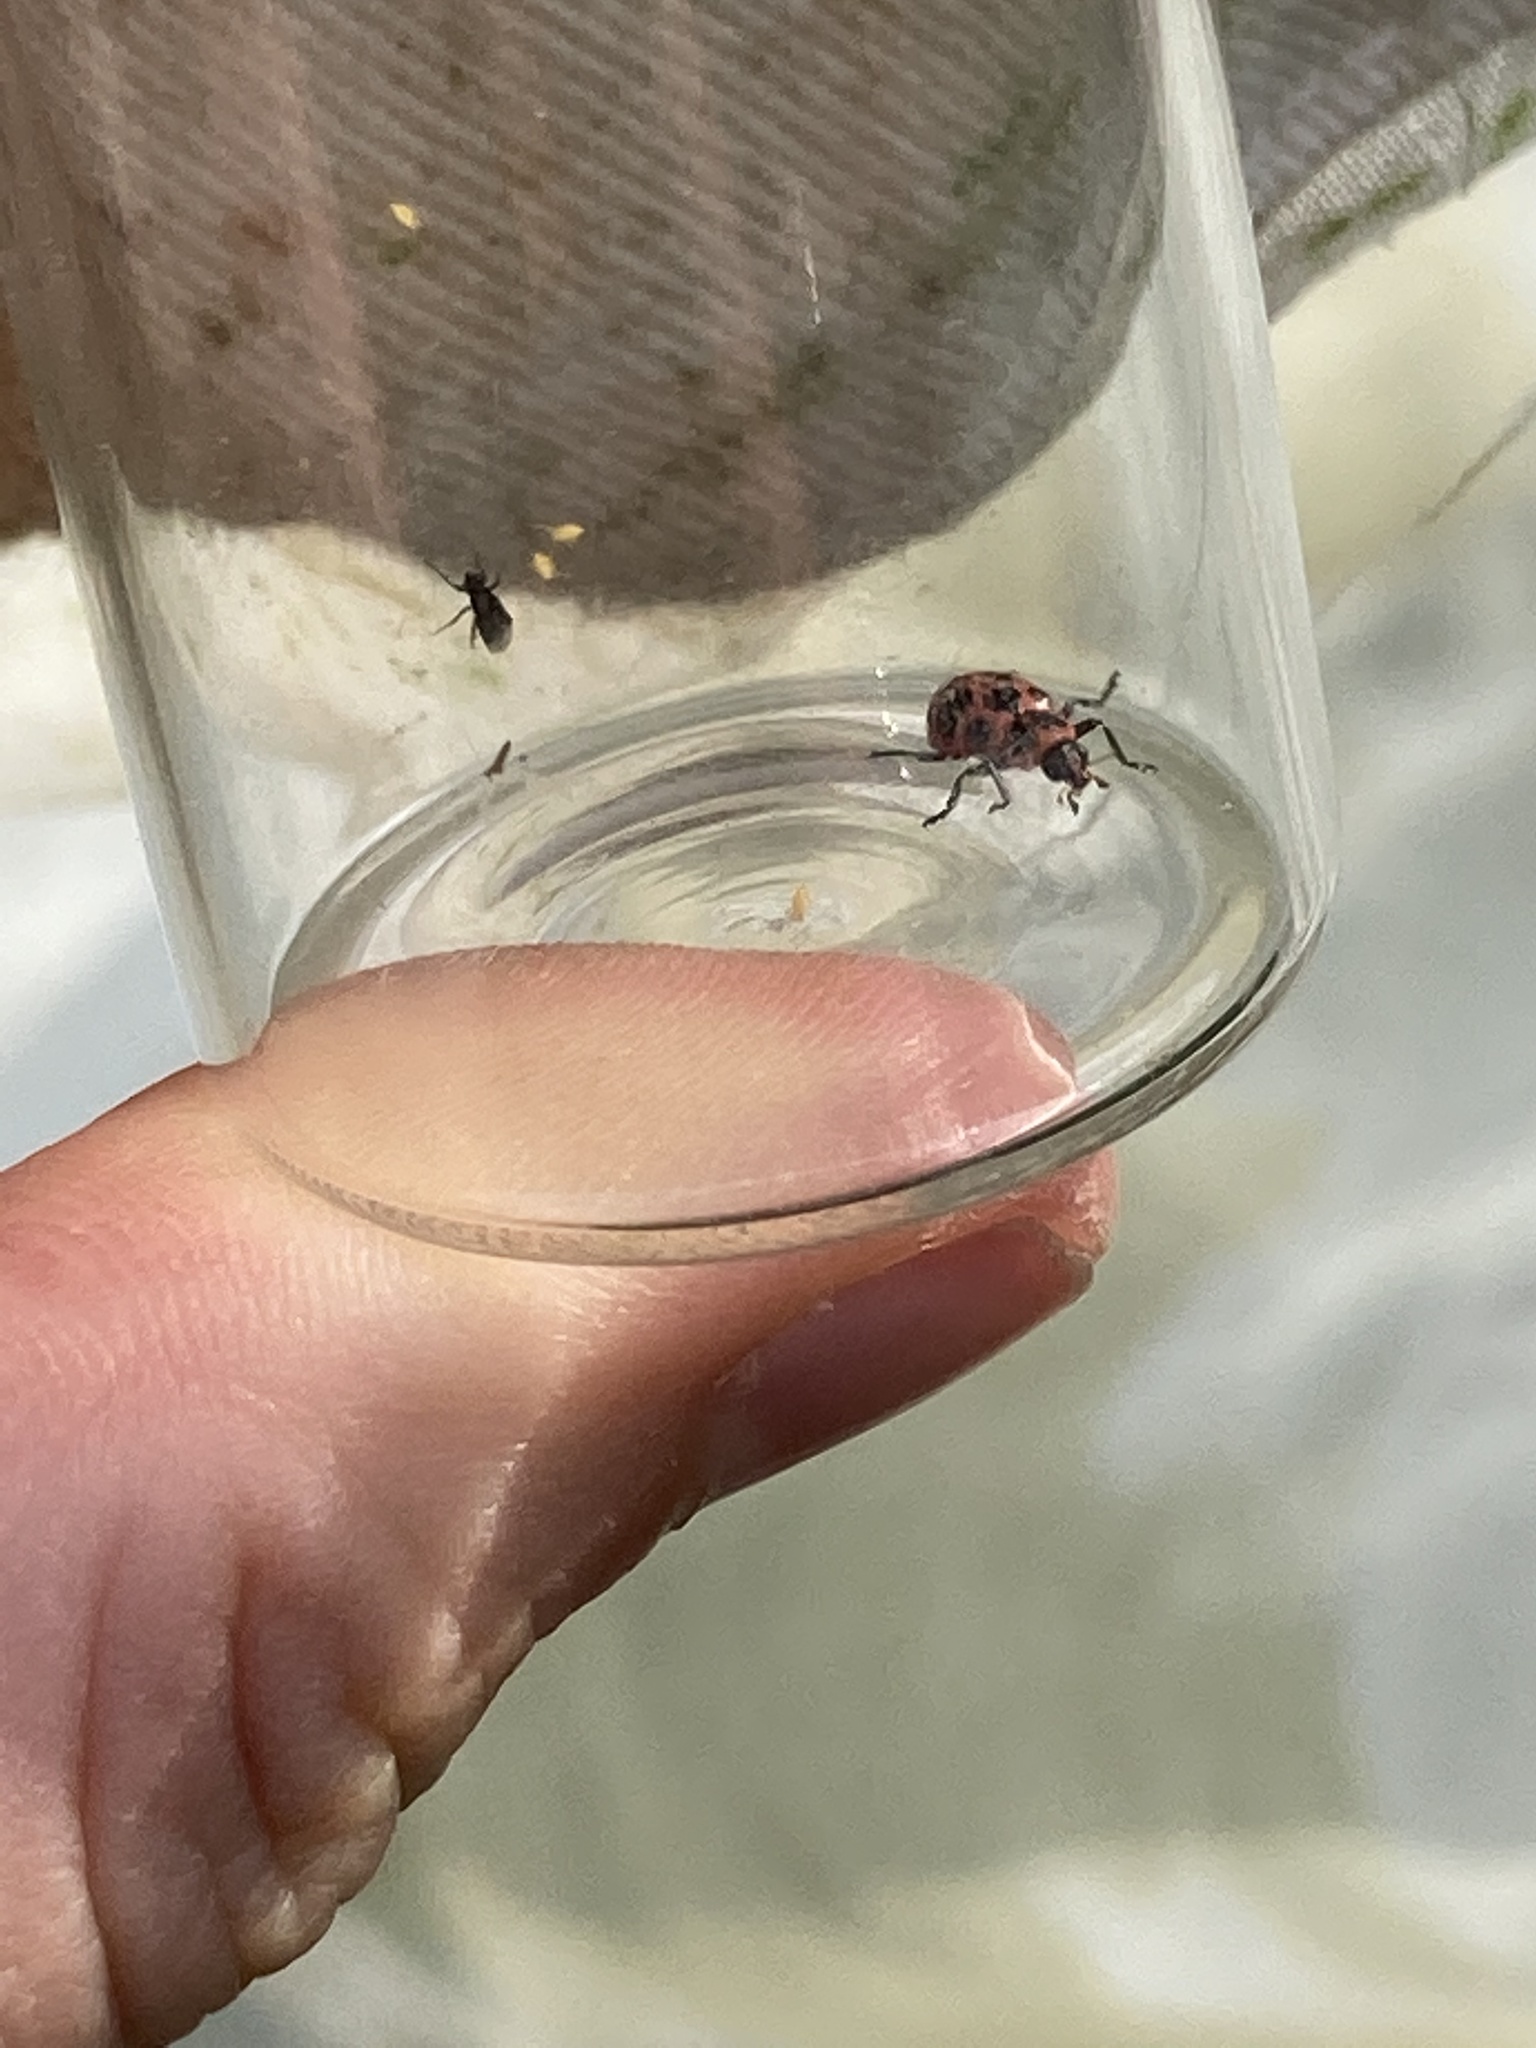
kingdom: Animalia
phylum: Arthropoda
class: Insecta
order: Coleoptera
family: Coccinellidae
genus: Coleomegilla
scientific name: Coleomegilla maculata
